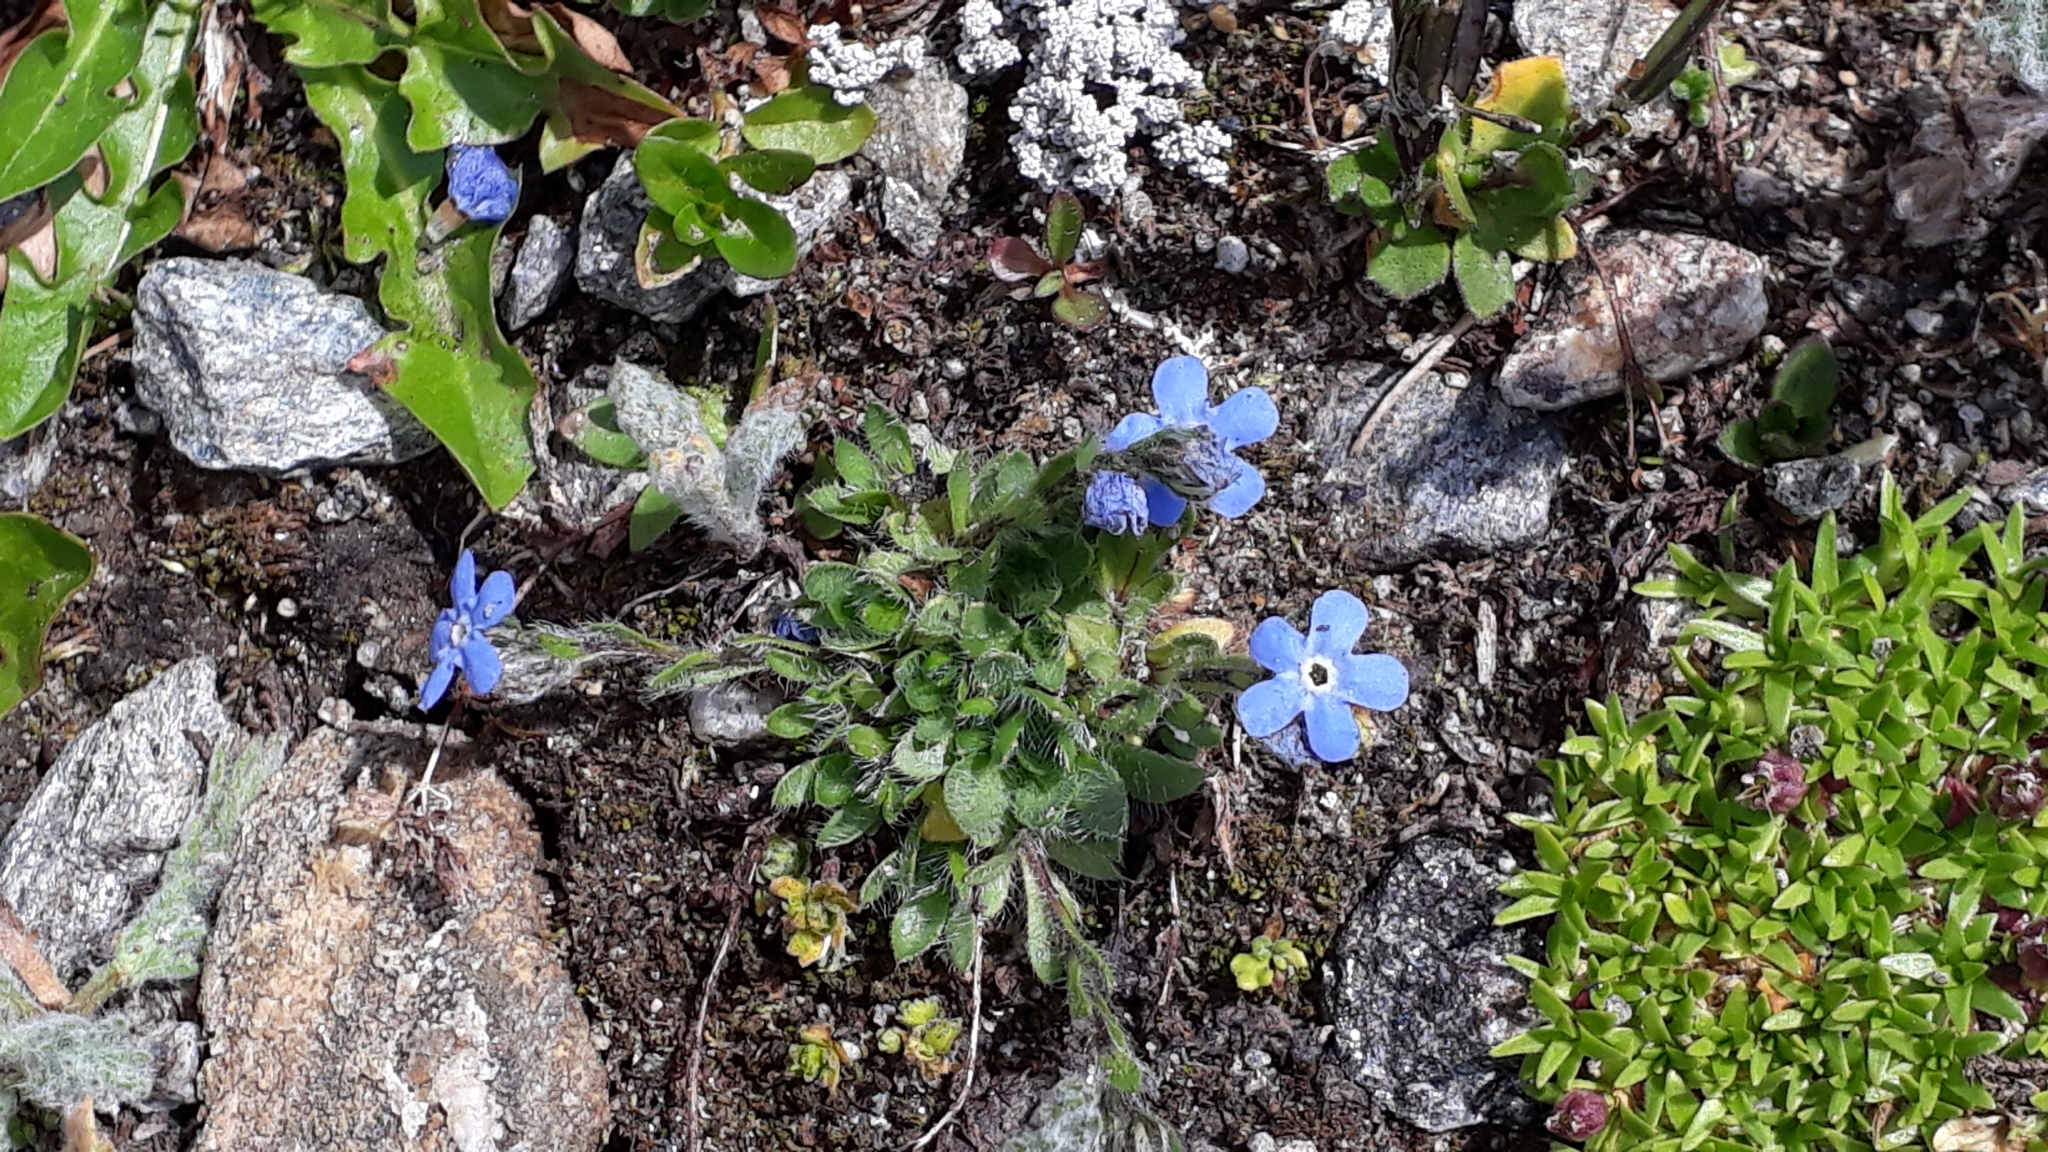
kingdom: Plantae
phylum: Tracheophyta
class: Magnoliopsida
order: Boraginales
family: Boraginaceae
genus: Eritrichium
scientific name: Eritrichium nanum
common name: King-of-the-alps
